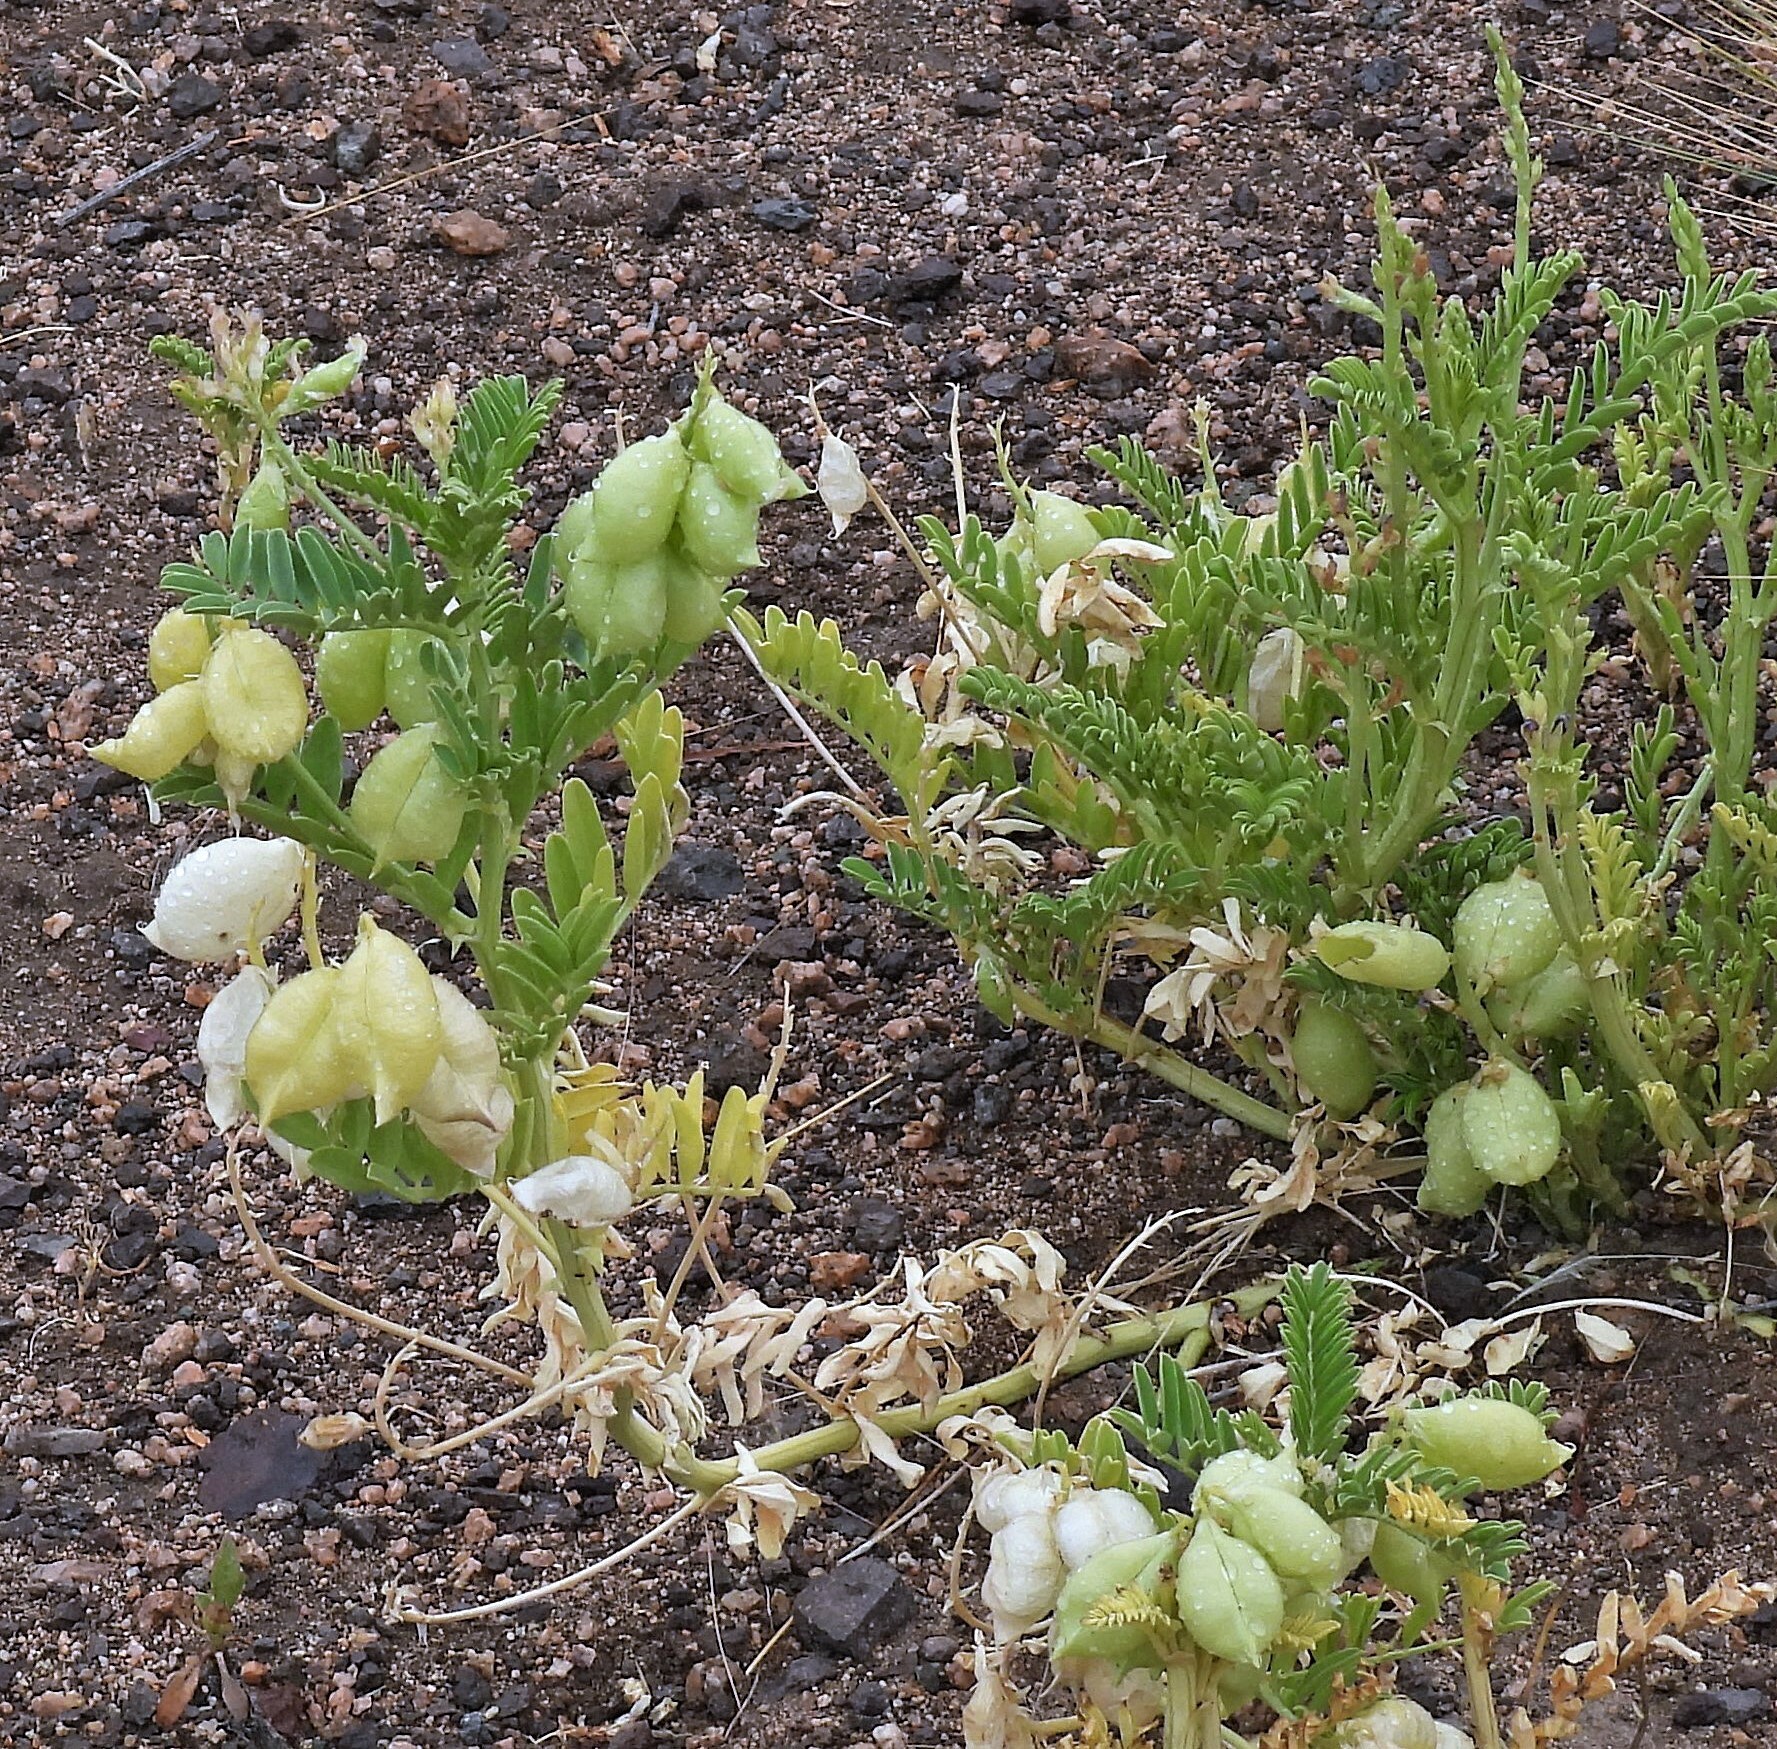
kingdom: Plantae
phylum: Tracheophyta
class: Magnoliopsida
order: Fabales
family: Fabaceae
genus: Astragalus
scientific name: Astragalus pehuenches
